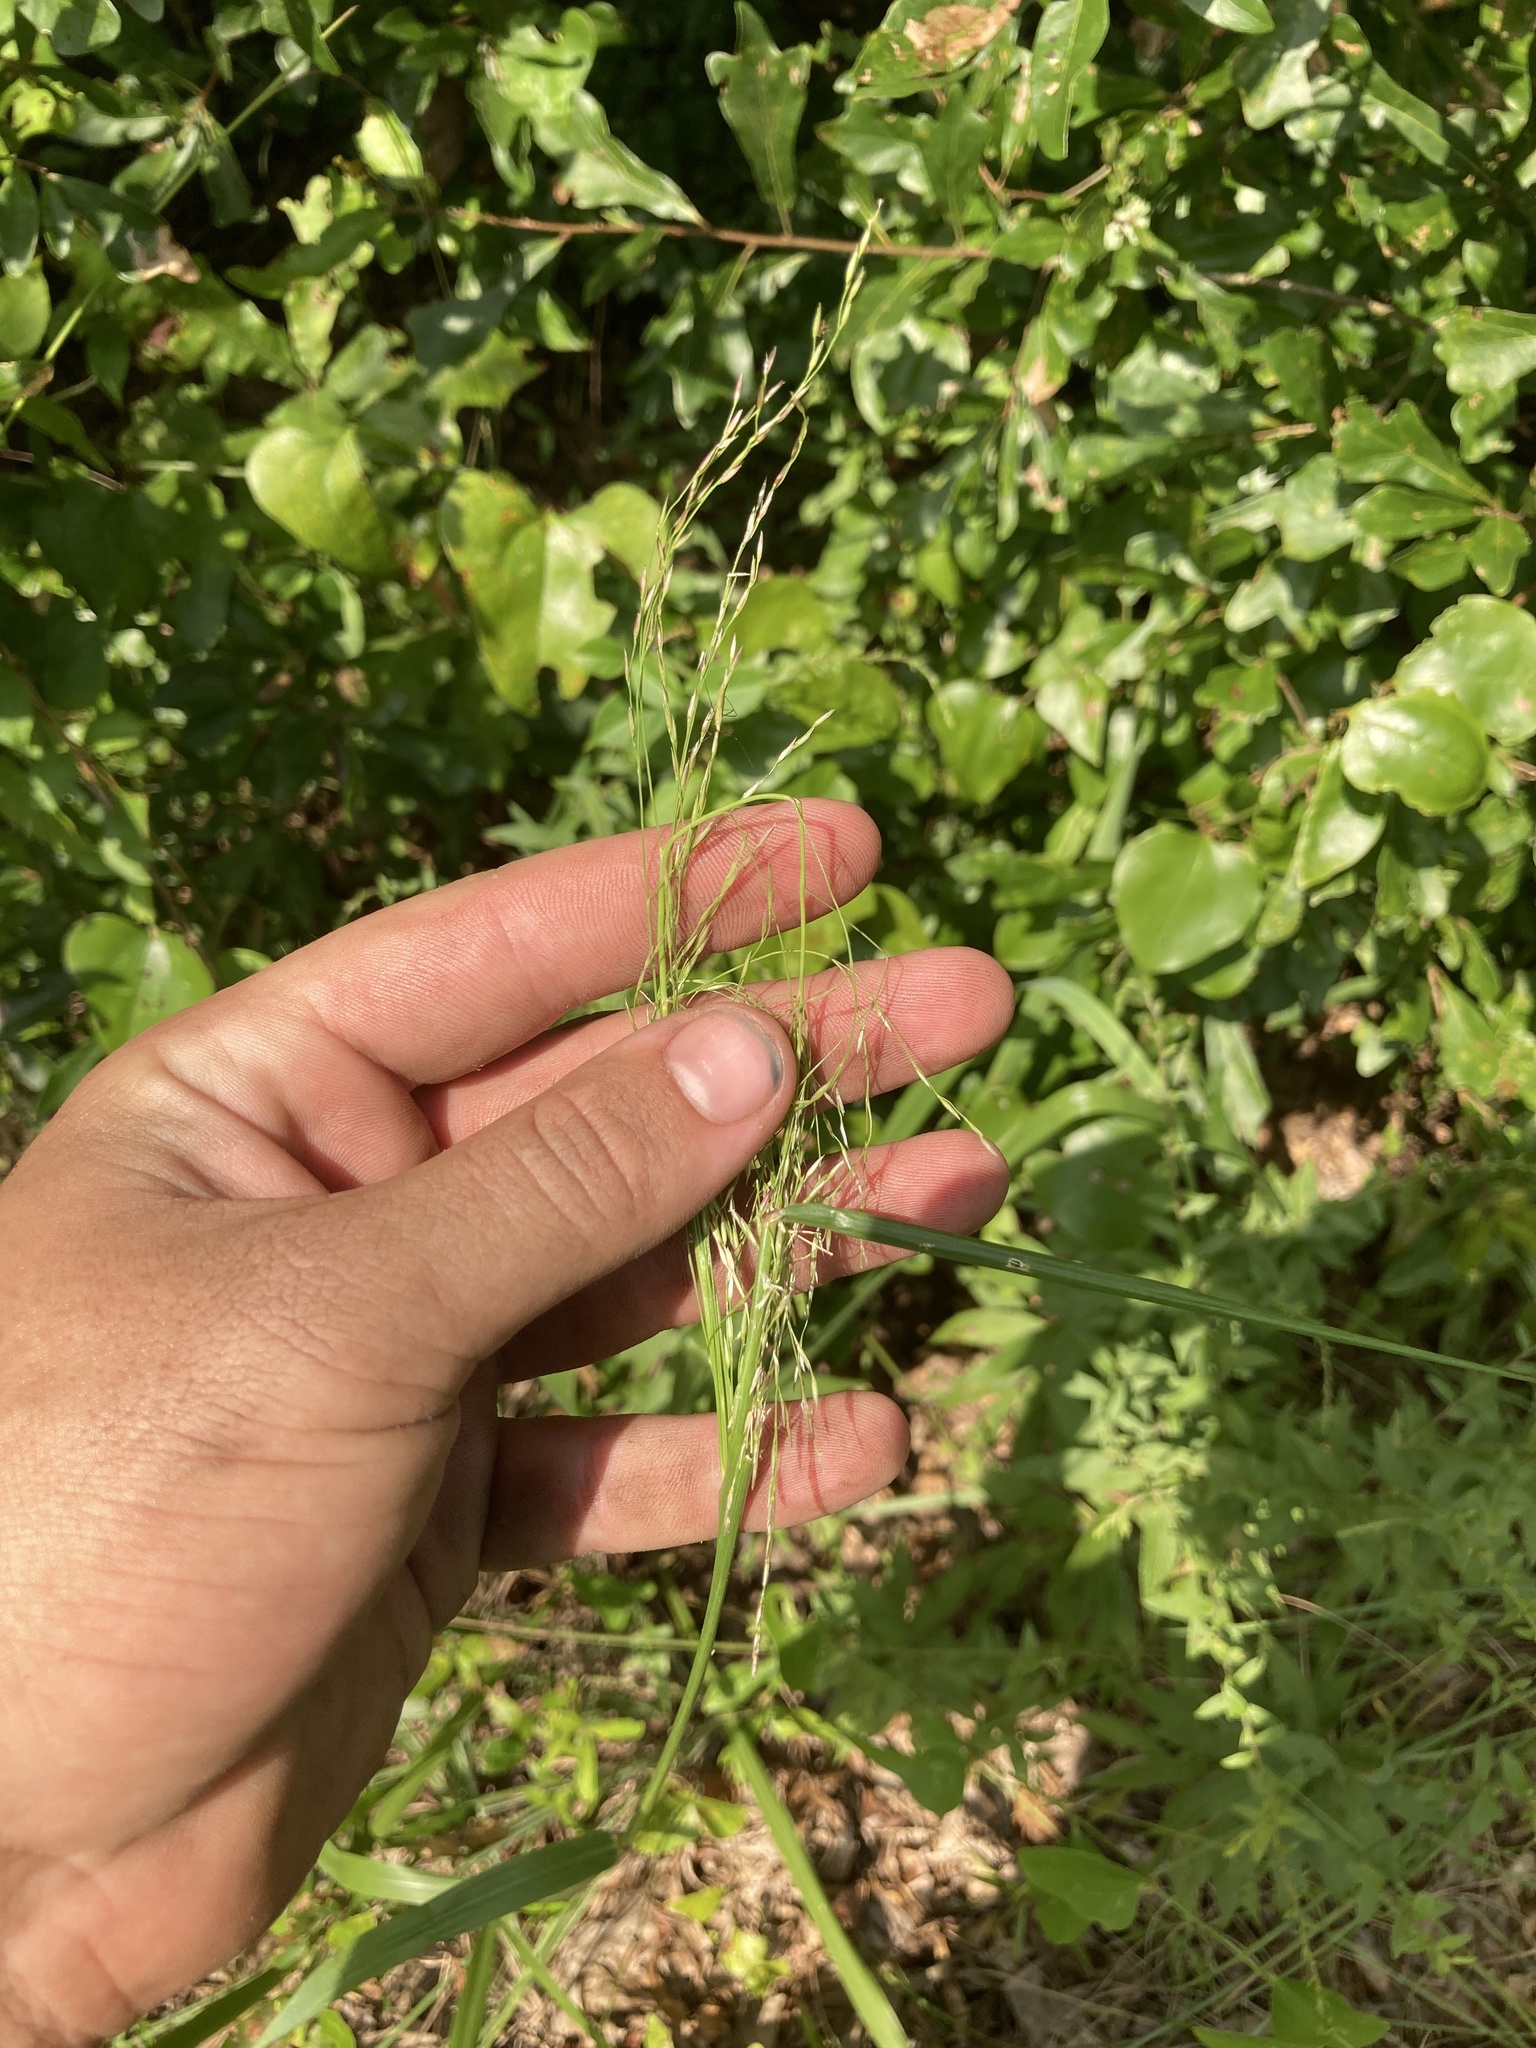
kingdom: Plantae
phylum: Tracheophyta
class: Liliopsida
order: Poales
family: Poaceae
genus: Tridens
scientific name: Tridens flavus
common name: Purpletop
